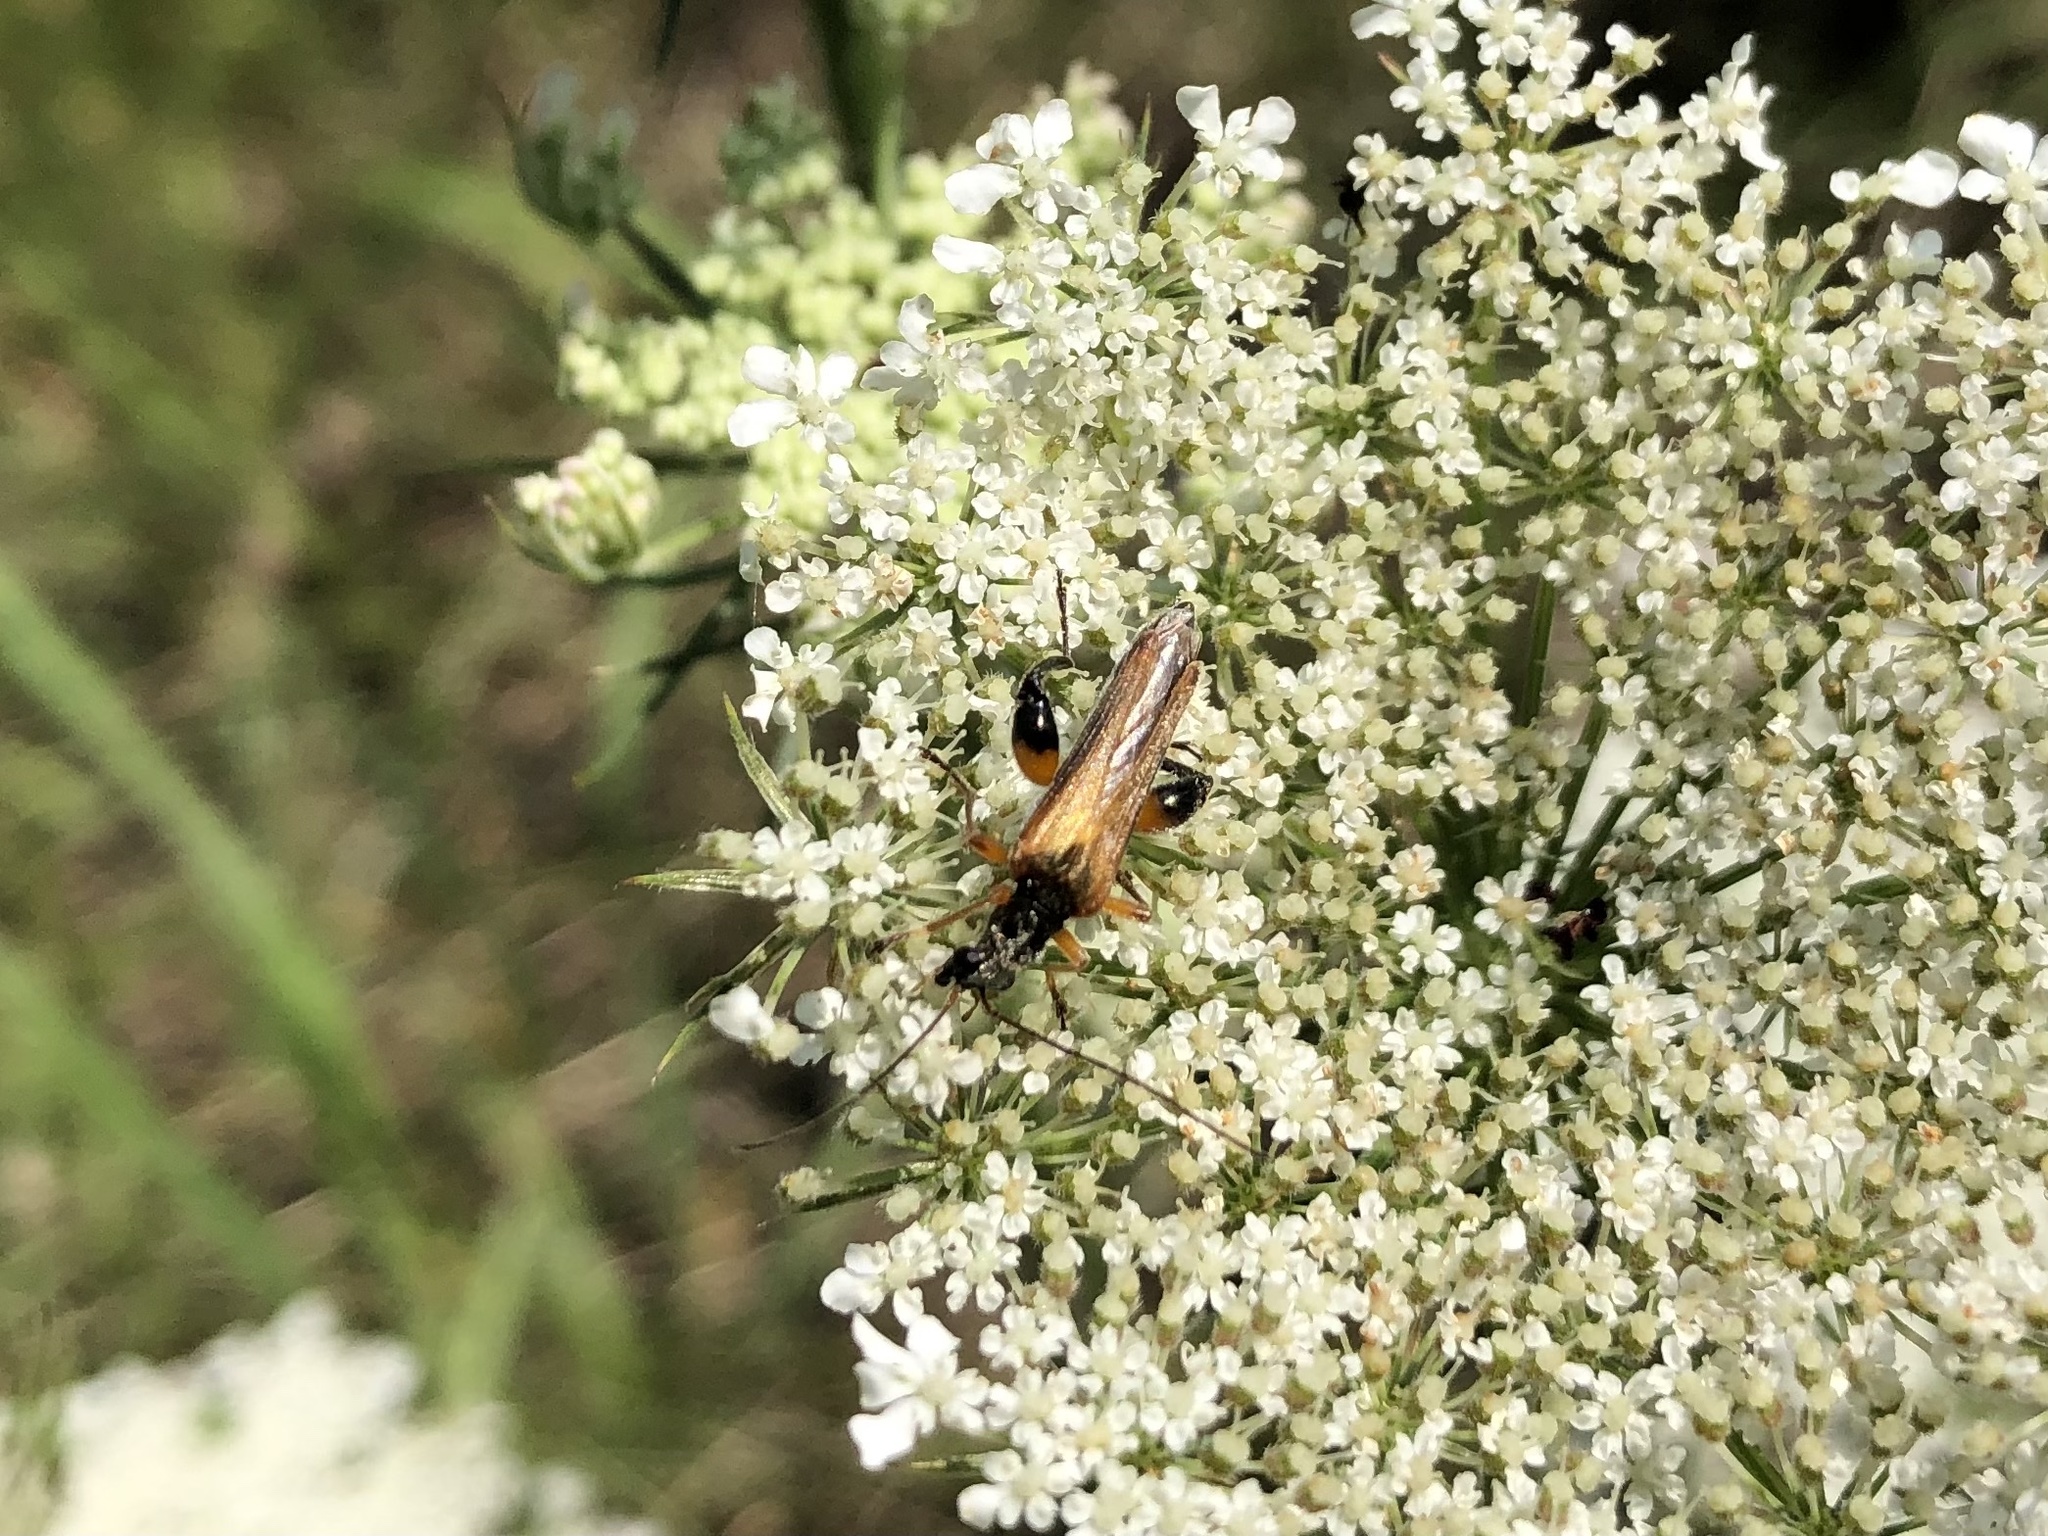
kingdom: Animalia
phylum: Arthropoda
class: Insecta
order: Coleoptera
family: Oedemeridae
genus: Oedemera
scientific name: Oedemera podagrariae
